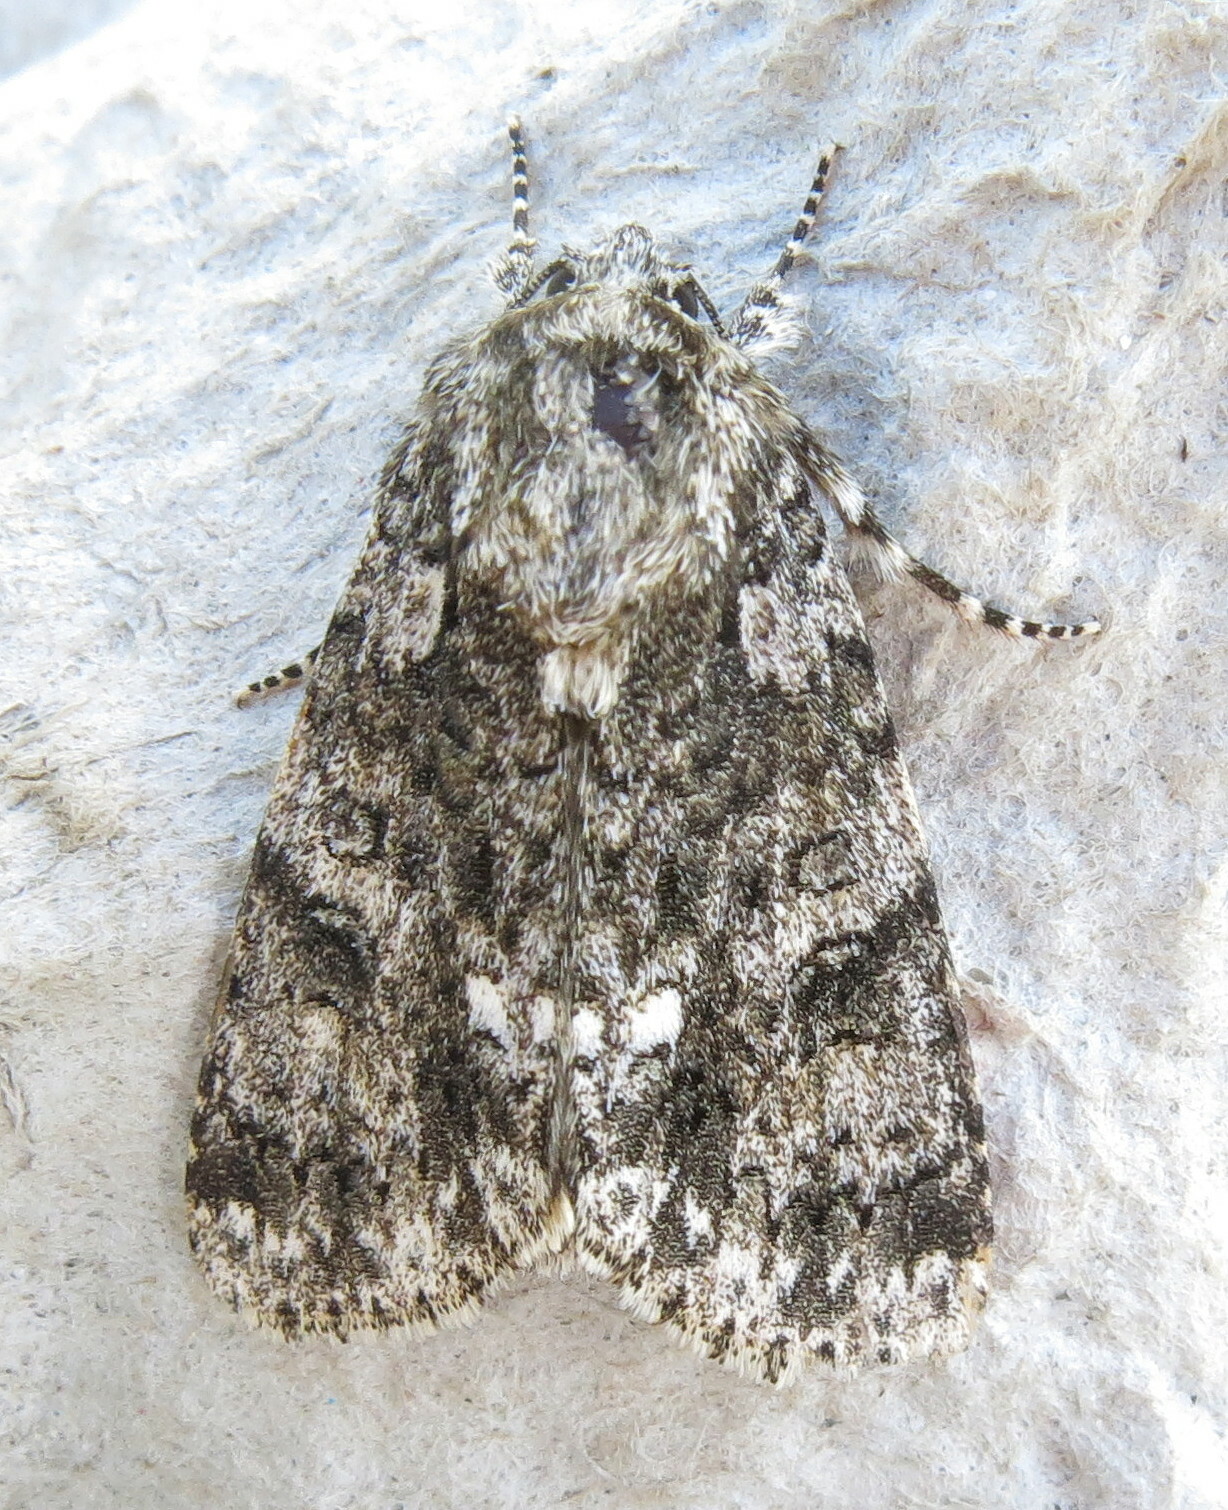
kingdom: Animalia
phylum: Arthropoda
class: Insecta
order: Lepidoptera
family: Noctuidae
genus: Acronicta
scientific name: Acronicta rumicis
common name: Knot grass
